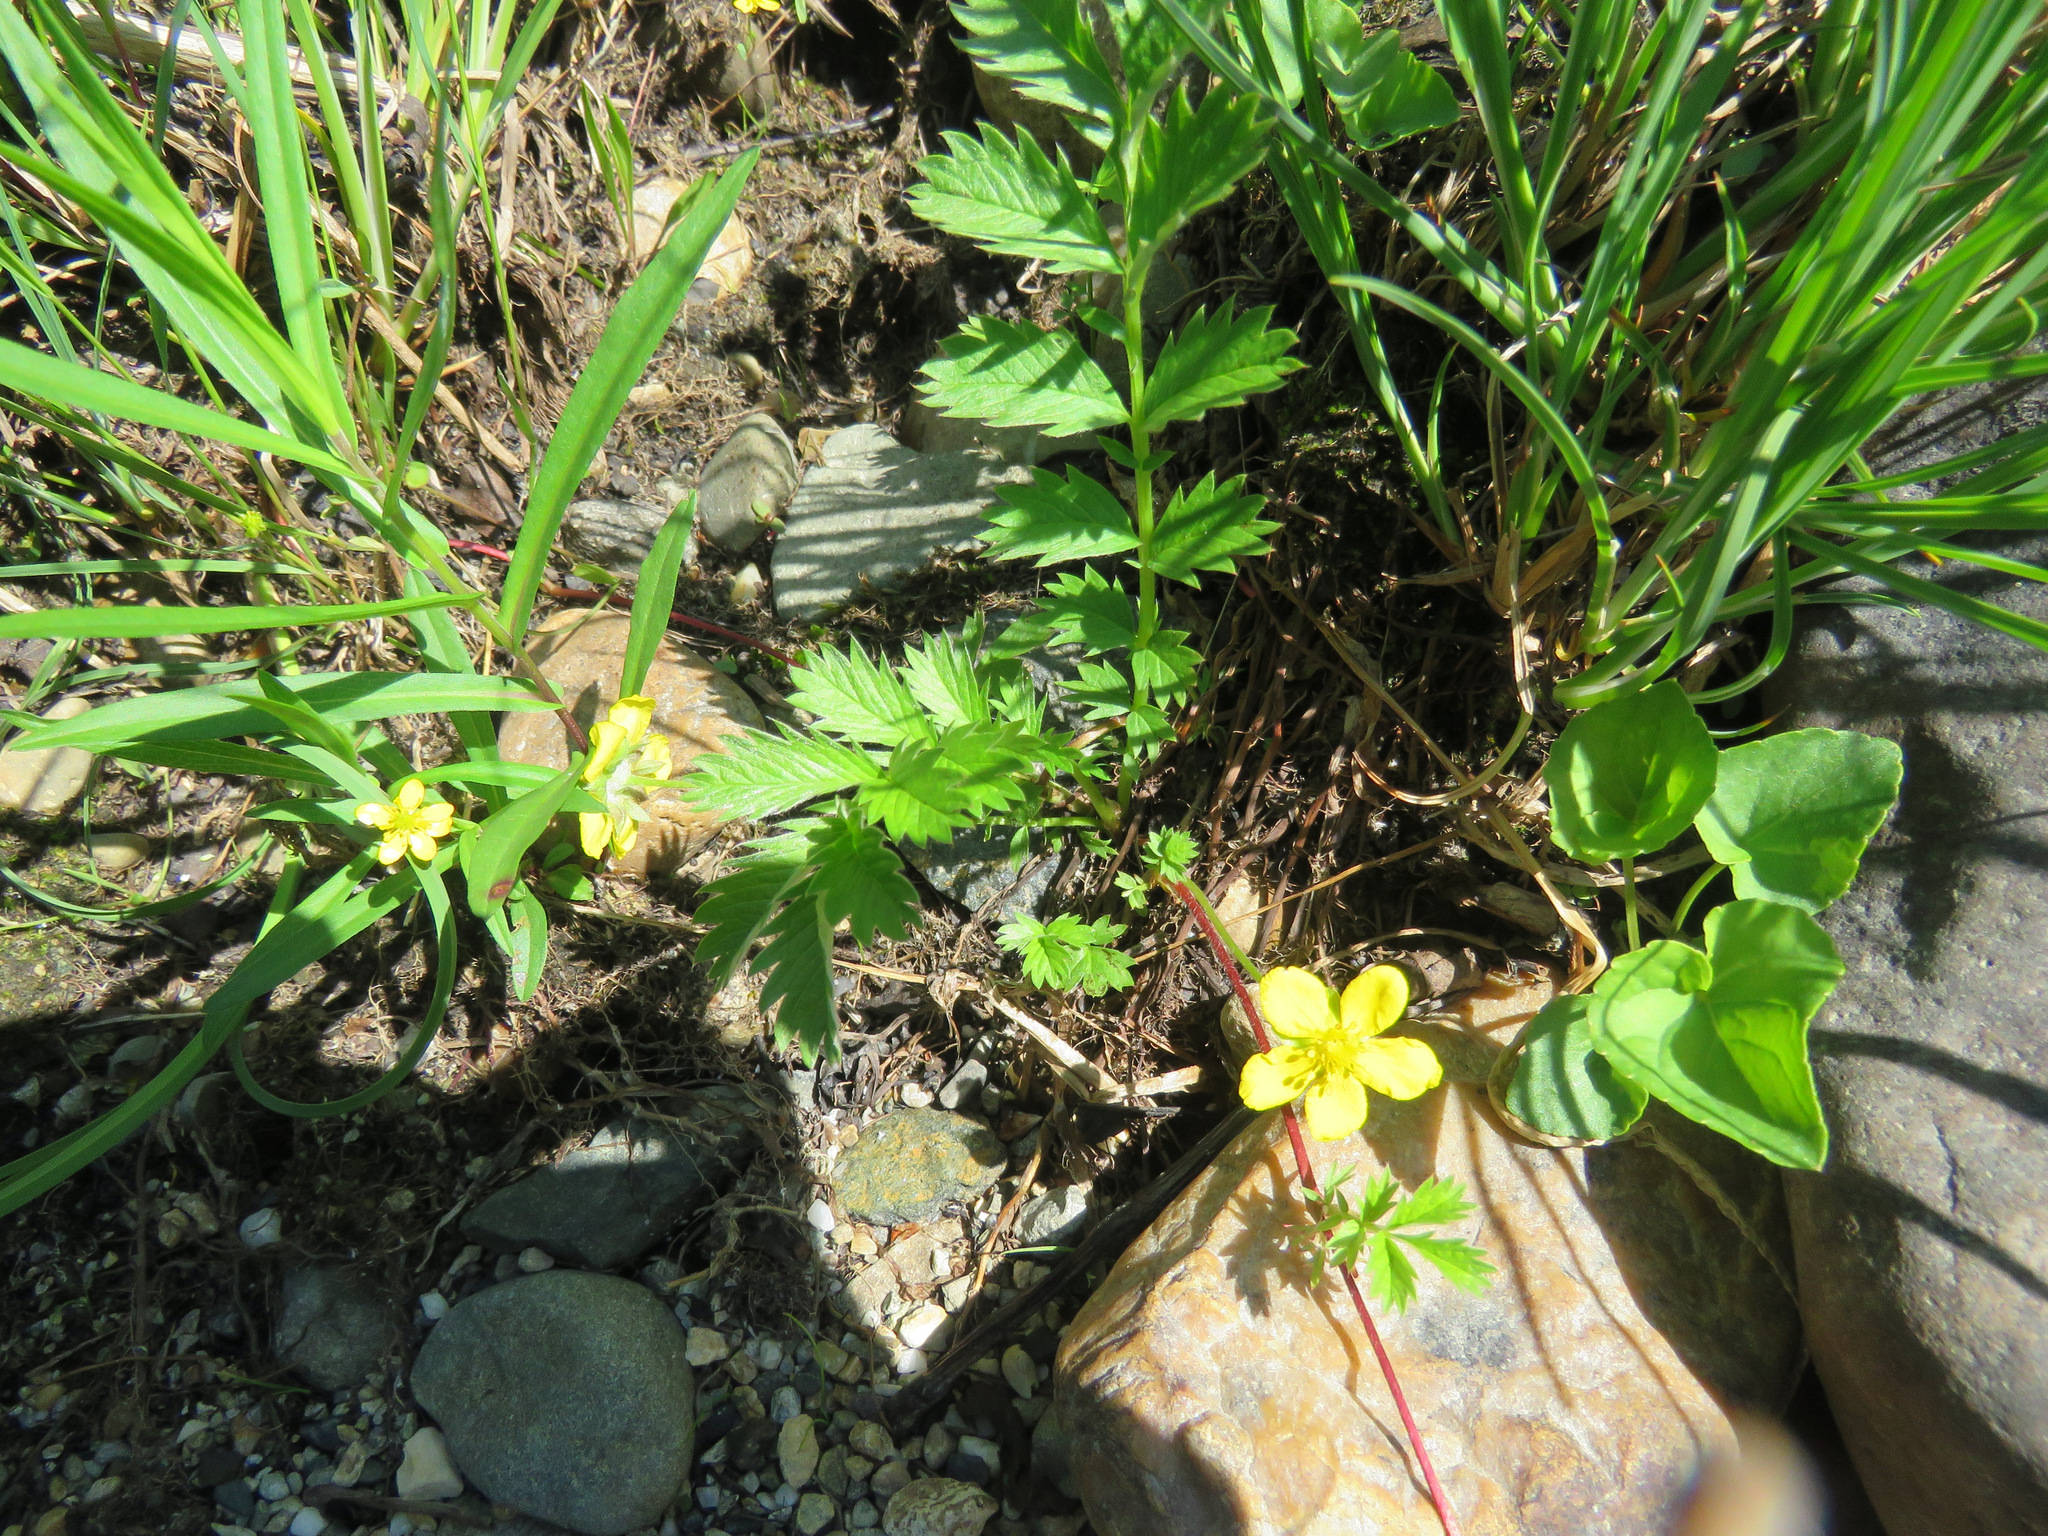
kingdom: Plantae
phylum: Tracheophyta
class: Magnoliopsida
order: Rosales
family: Rosaceae
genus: Argentina
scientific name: Argentina anserina
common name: Common silverweed
